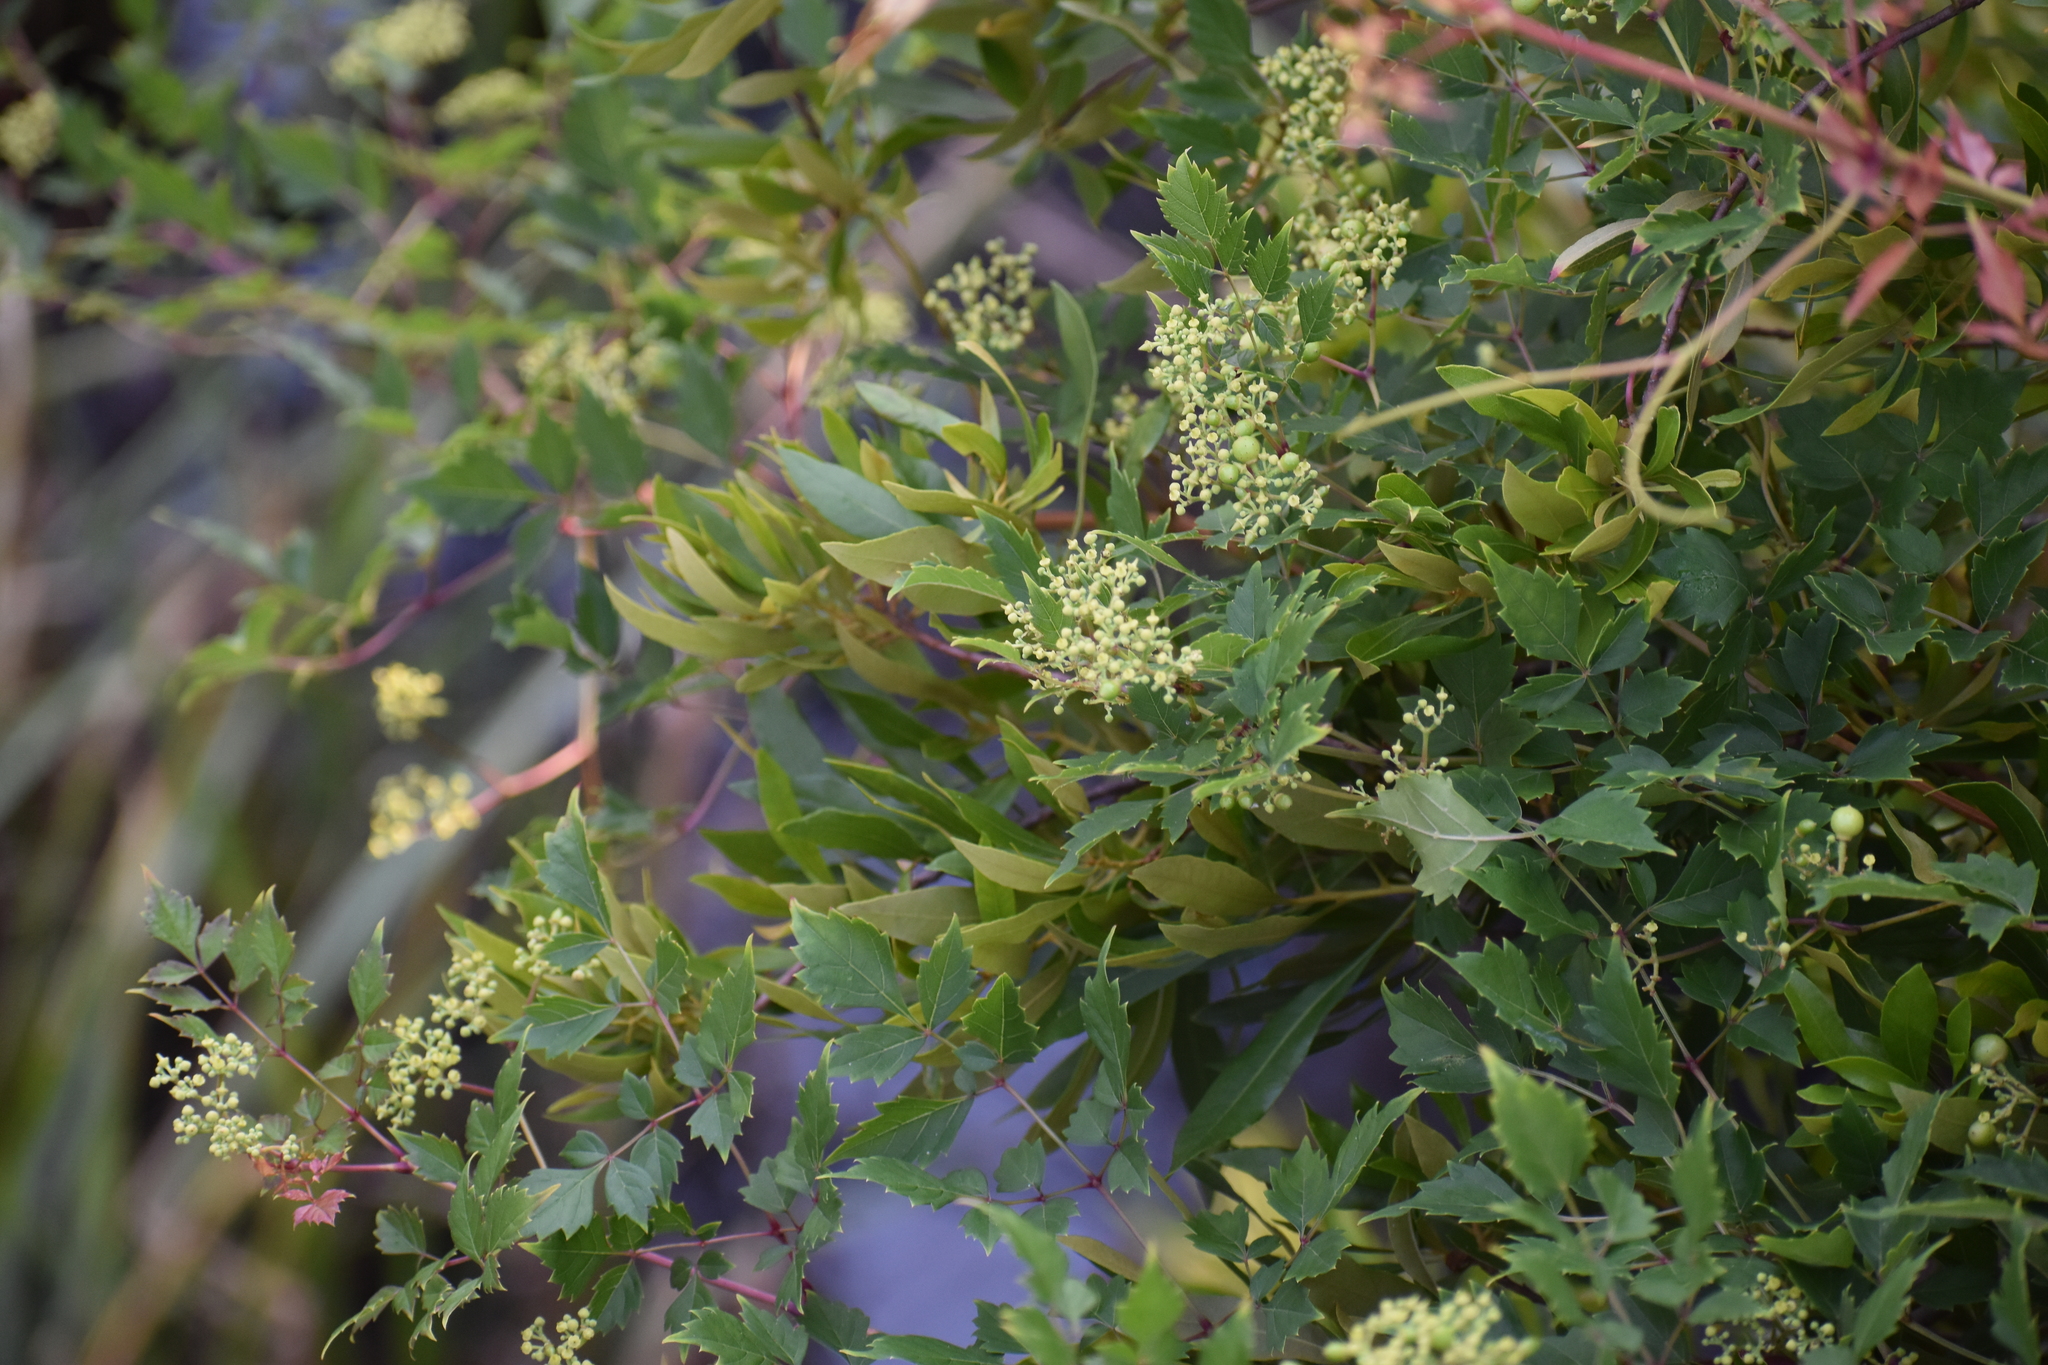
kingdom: Plantae
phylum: Tracheophyta
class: Magnoliopsida
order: Vitales
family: Vitaceae
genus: Nekemias
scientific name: Nekemias arborea
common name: Peppervine
